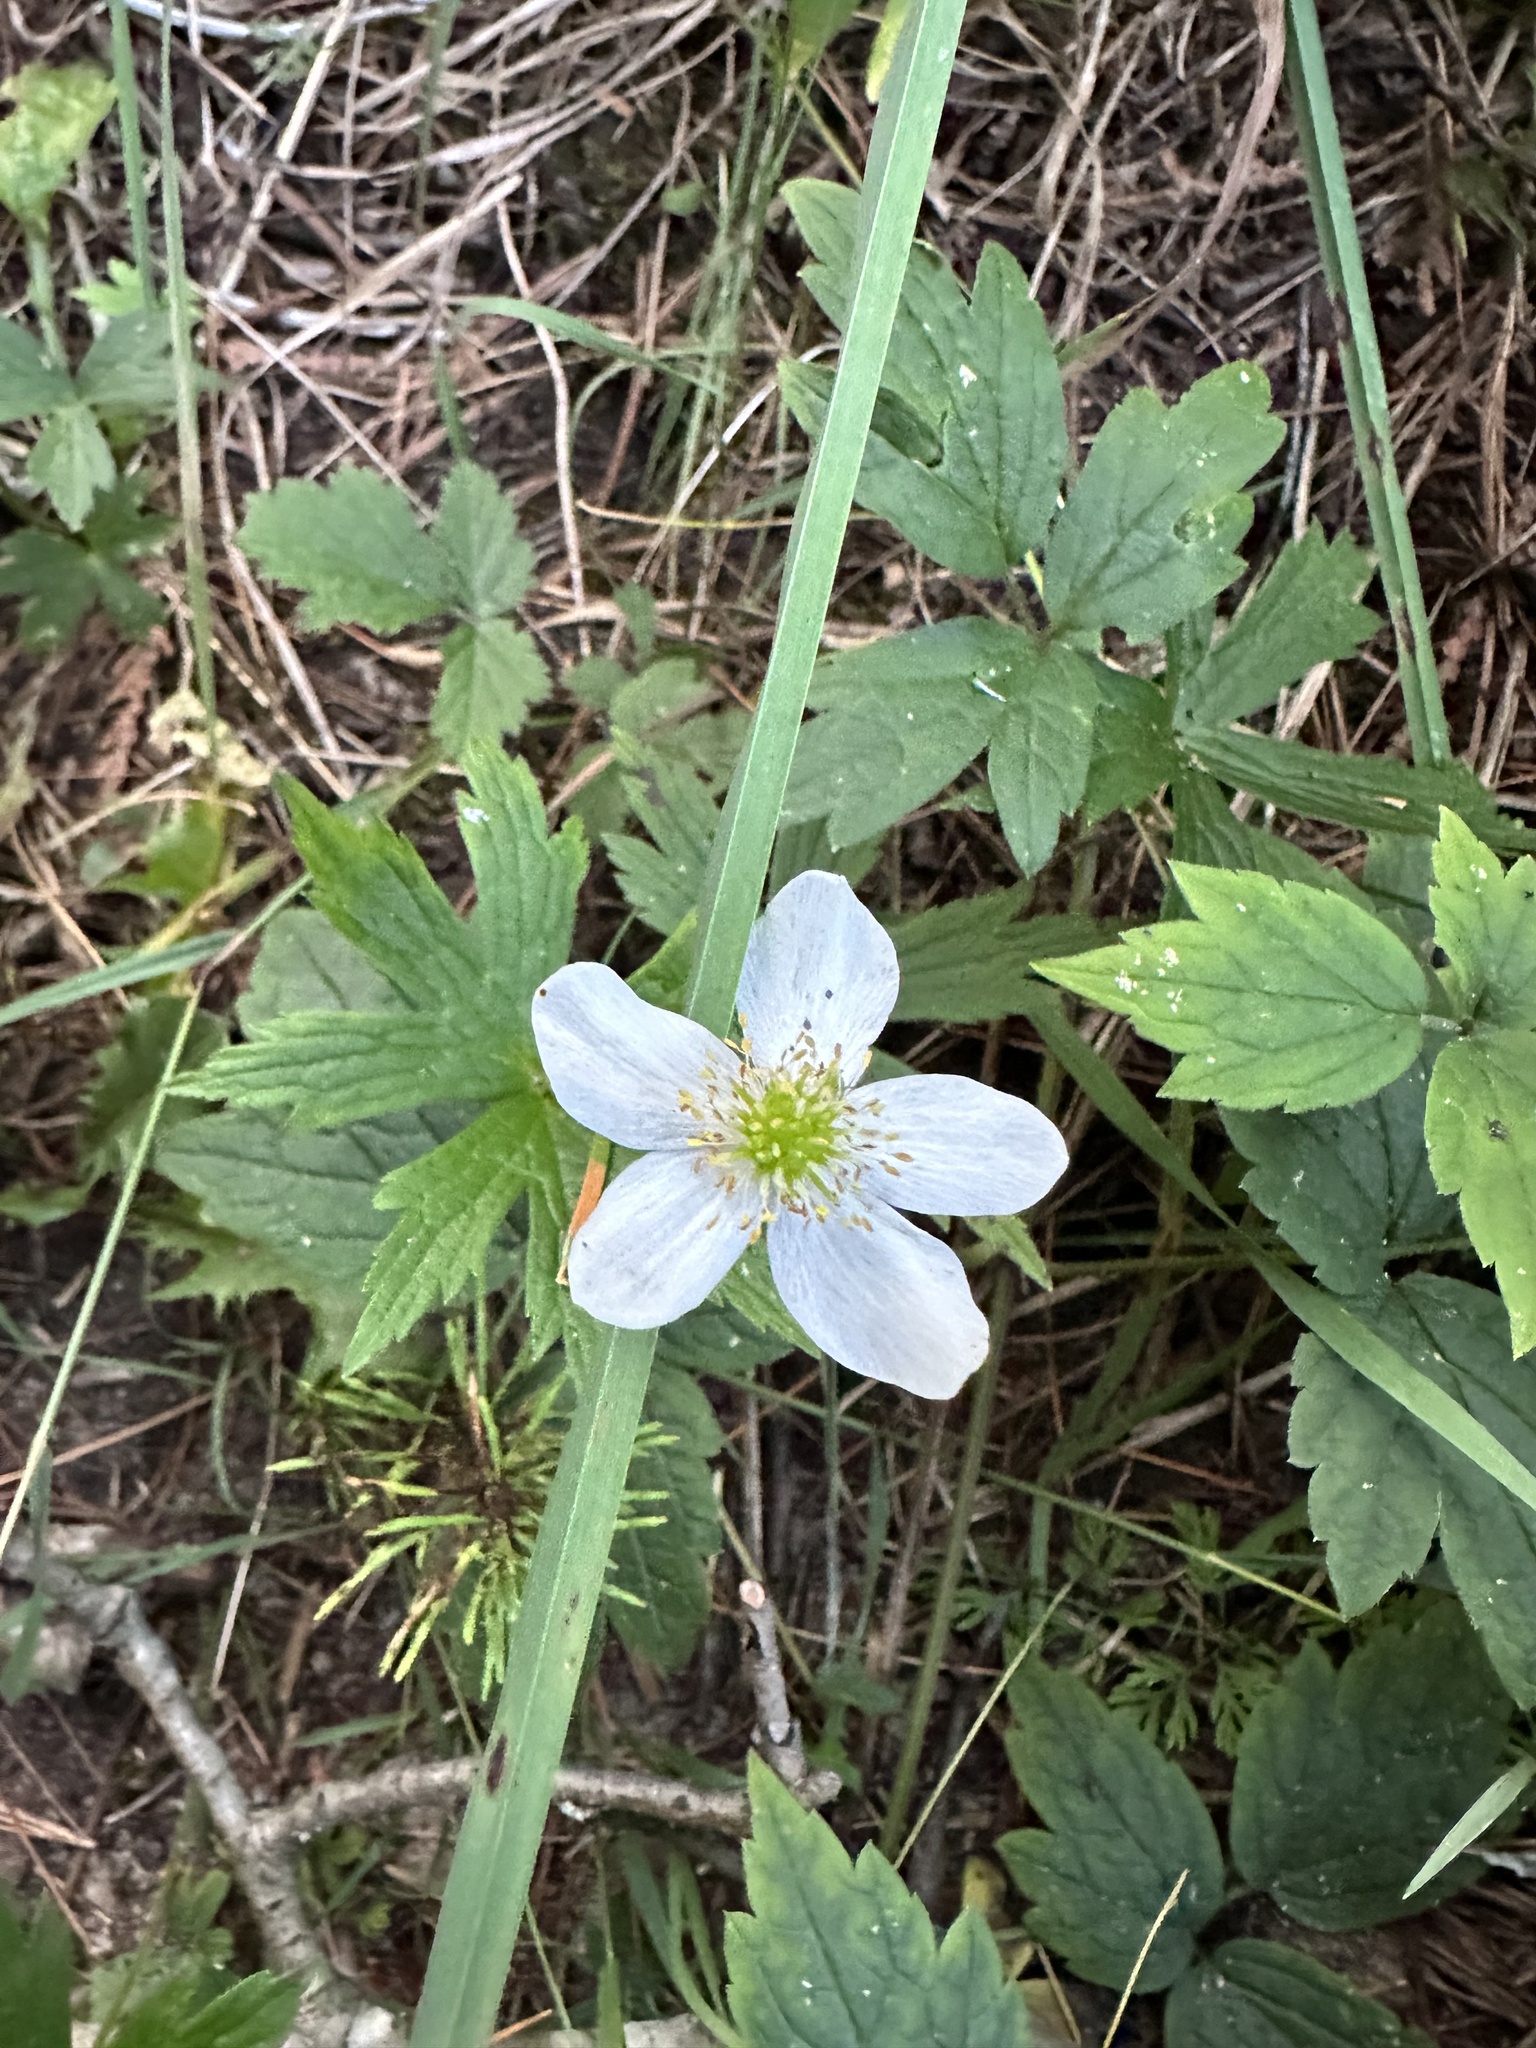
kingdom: Plantae
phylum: Tracheophyta
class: Magnoliopsida
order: Ranunculales
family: Ranunculaceae
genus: Anemonastrum
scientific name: Anemonastrum canadense
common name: Canada anemone
